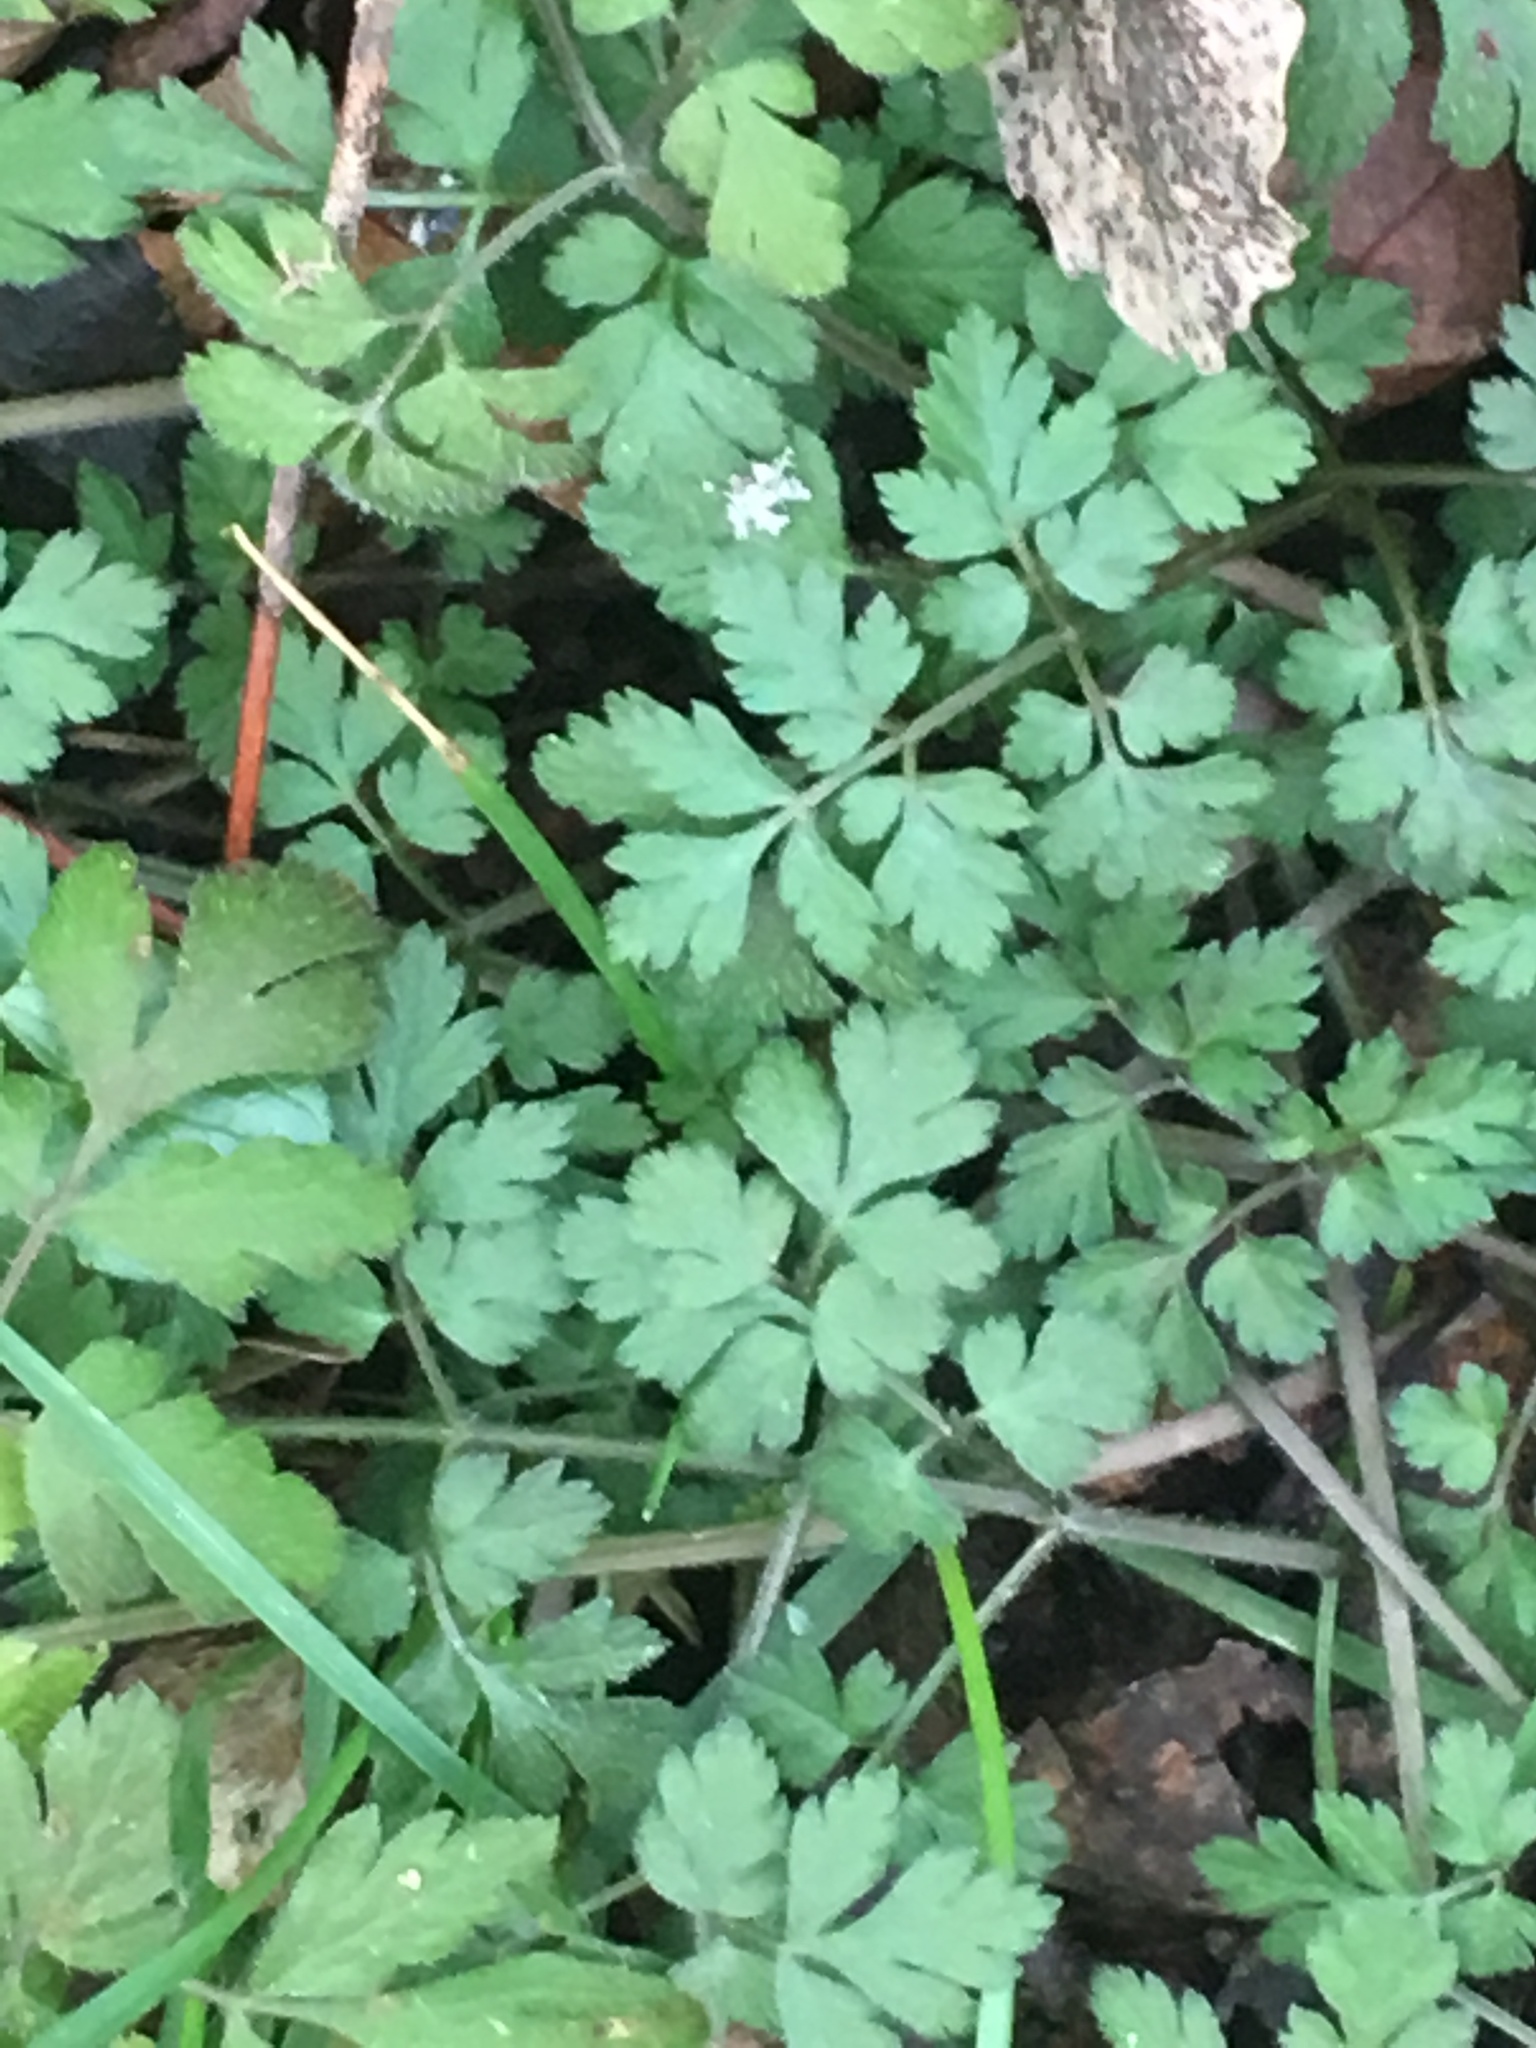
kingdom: Plantae
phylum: Tracheophyta
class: Magnoliopsida
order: Geraniales
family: Geraniaceae
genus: Geranium
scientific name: Geranium robertianum
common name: Herb-robert
